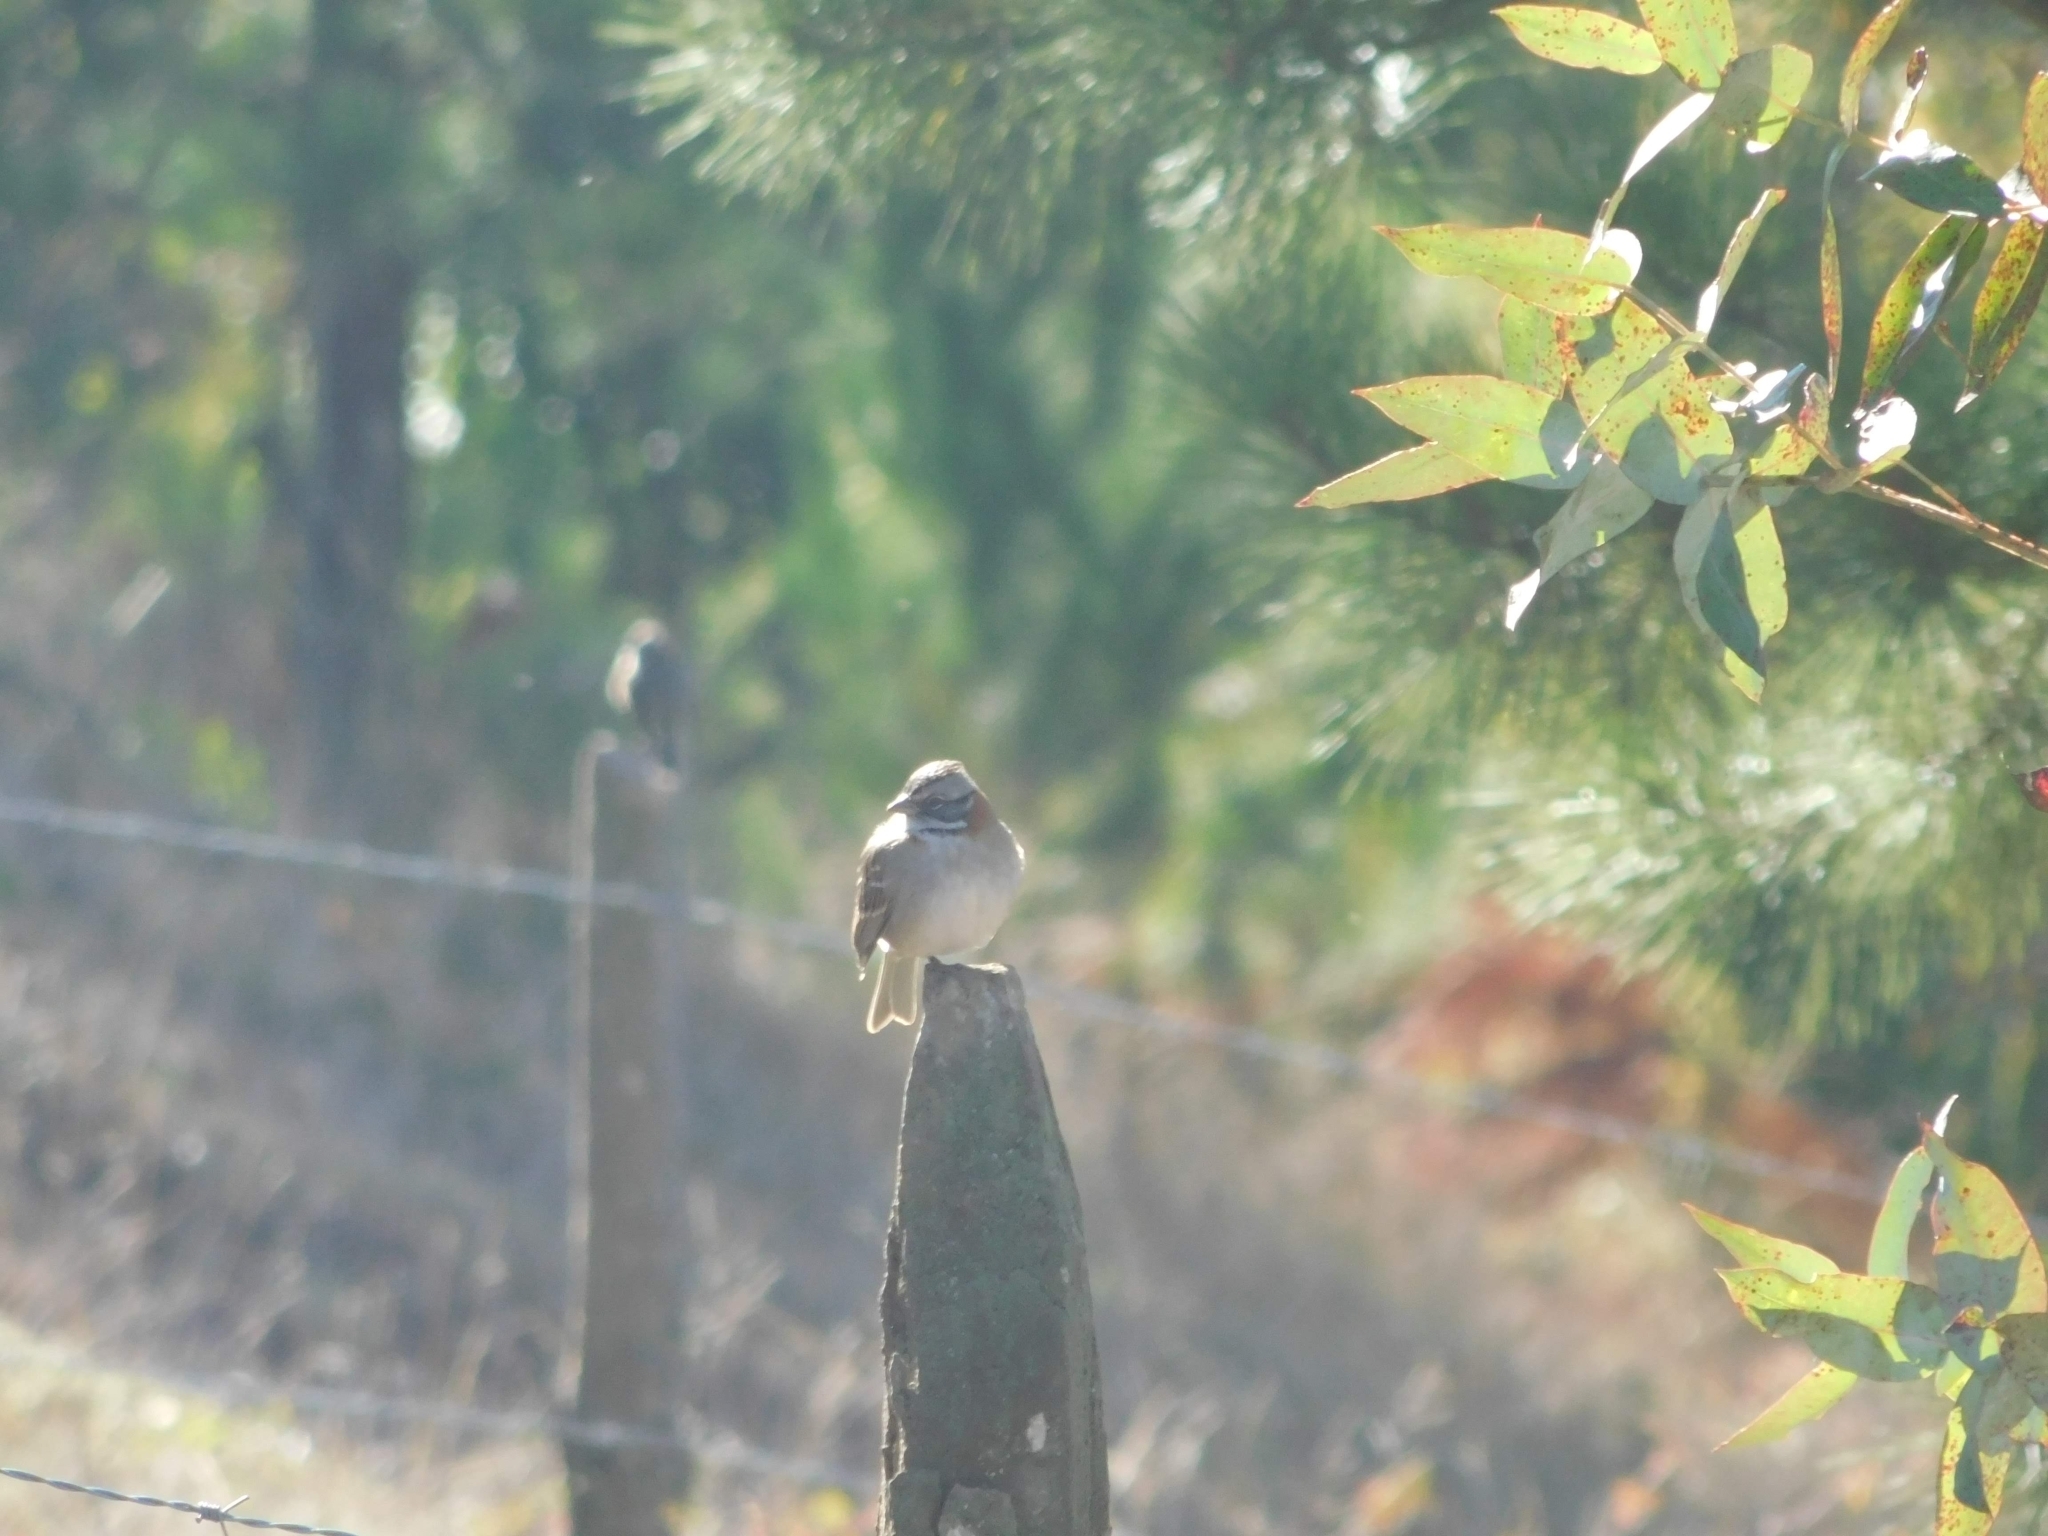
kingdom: Animalia
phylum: Chordata
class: Aves
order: Passeriformes
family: Passerellidae
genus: Zonotrichia
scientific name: Zonotrichia capensis
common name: Rufous-collared sparrow
